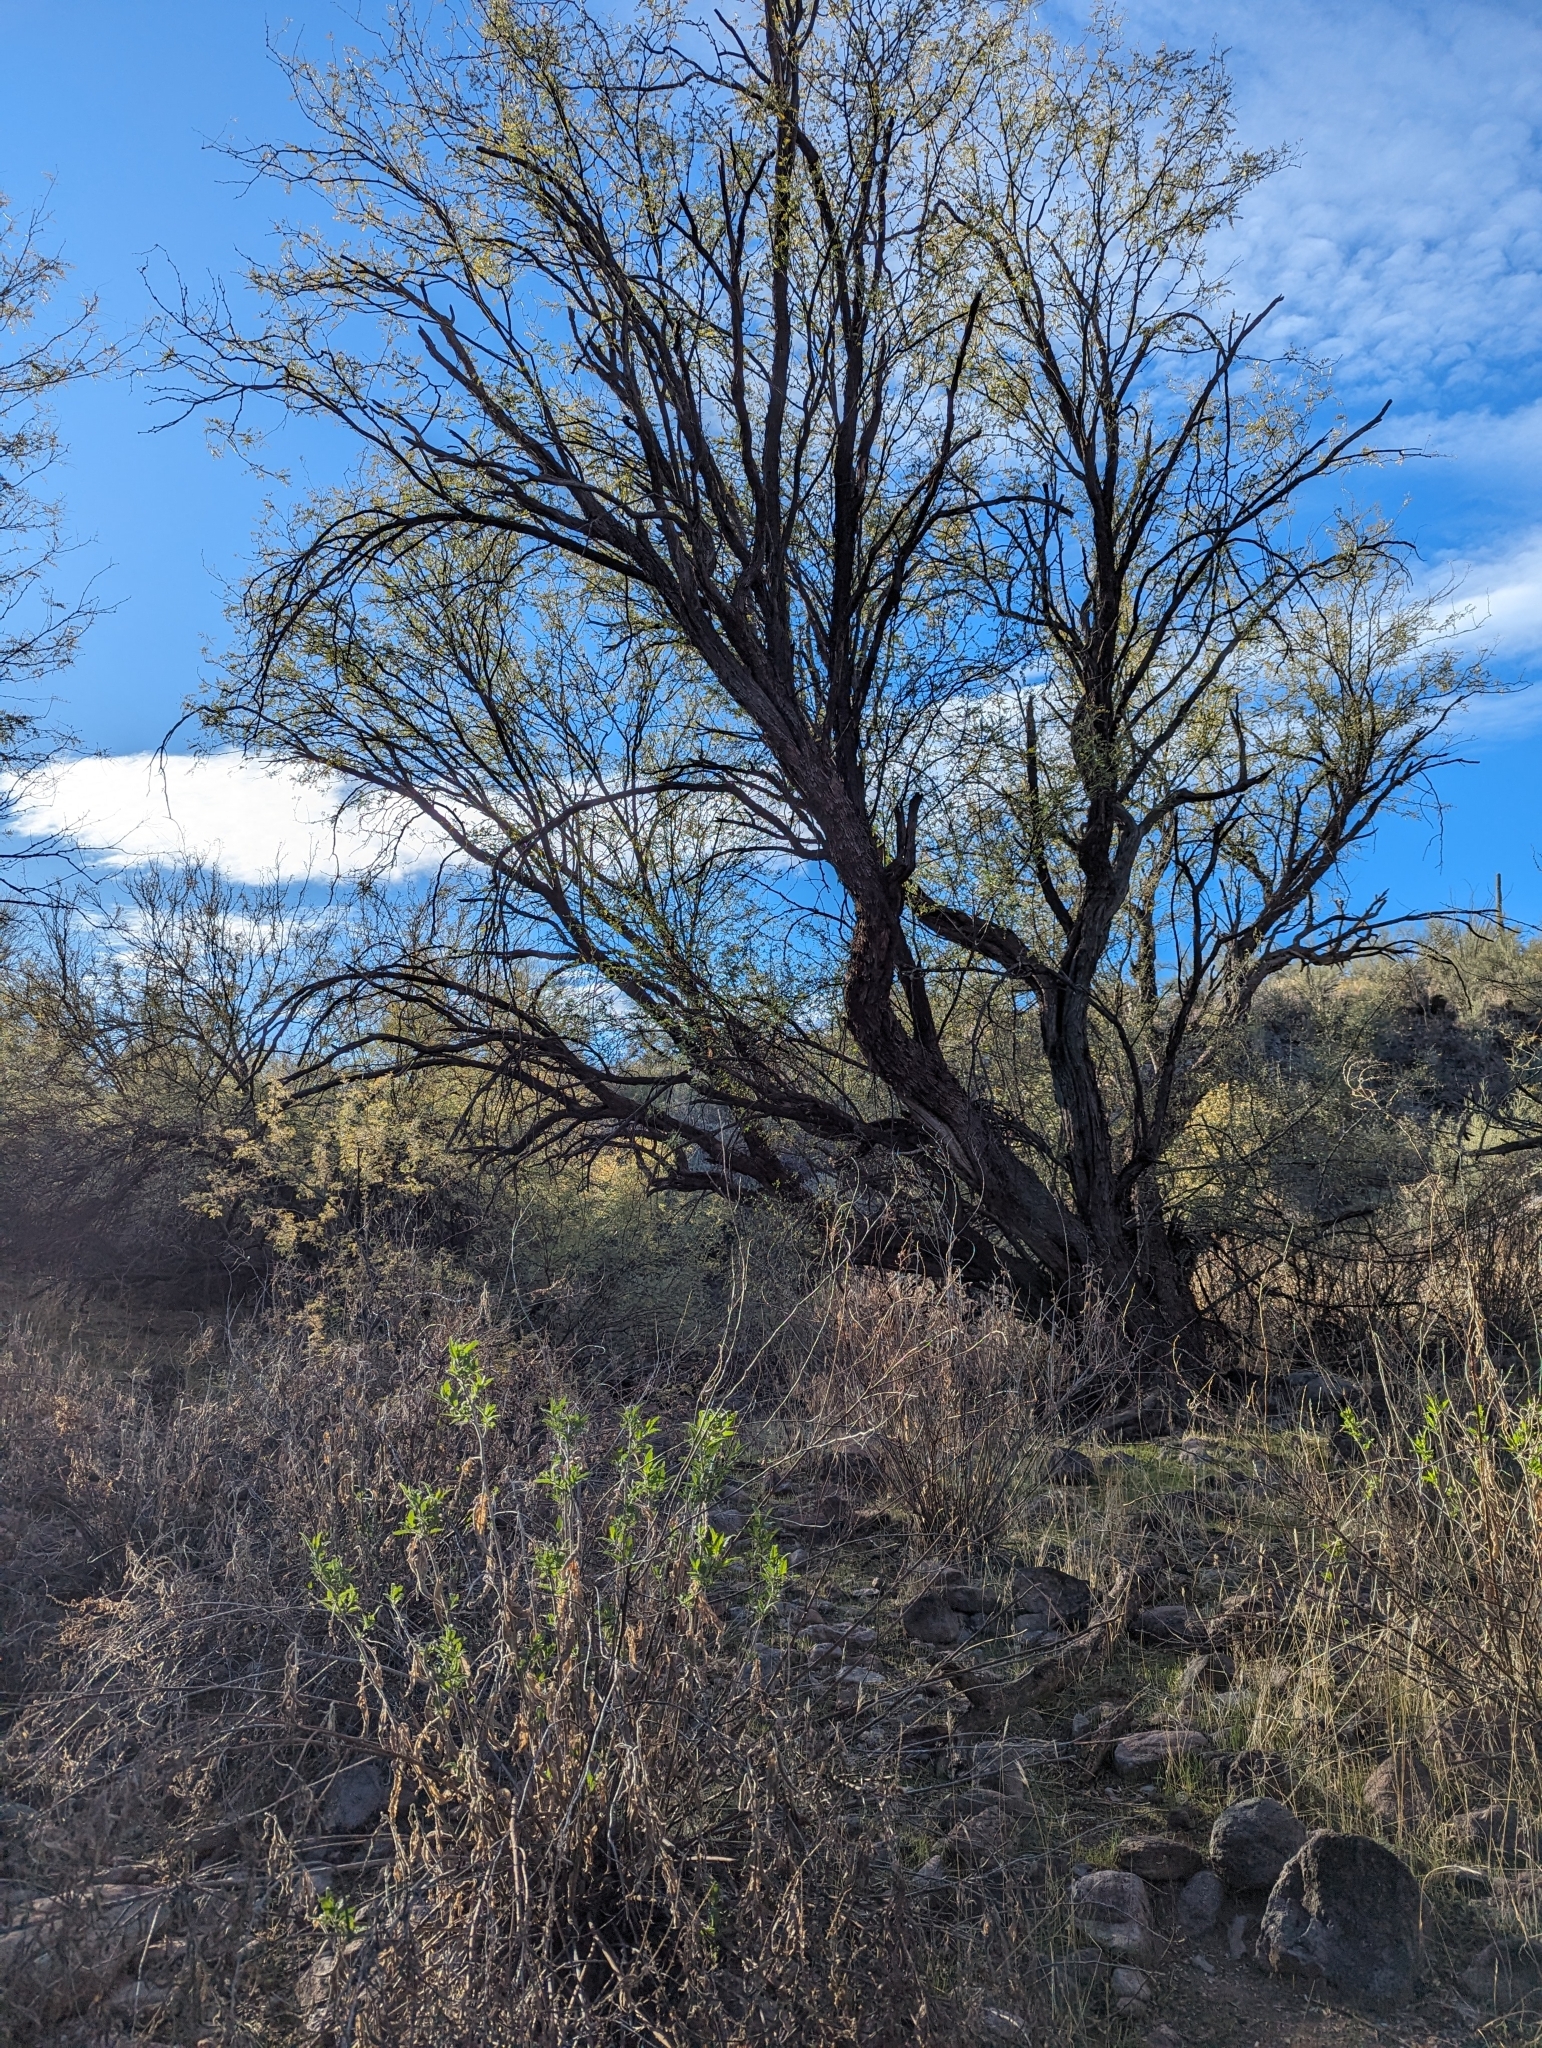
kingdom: Plantae
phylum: Tracheophyta
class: Magnoliopsida
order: Fabales
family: Fabaceae
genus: Prosopis
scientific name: Prosopis velutina
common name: Velvet mesquite
